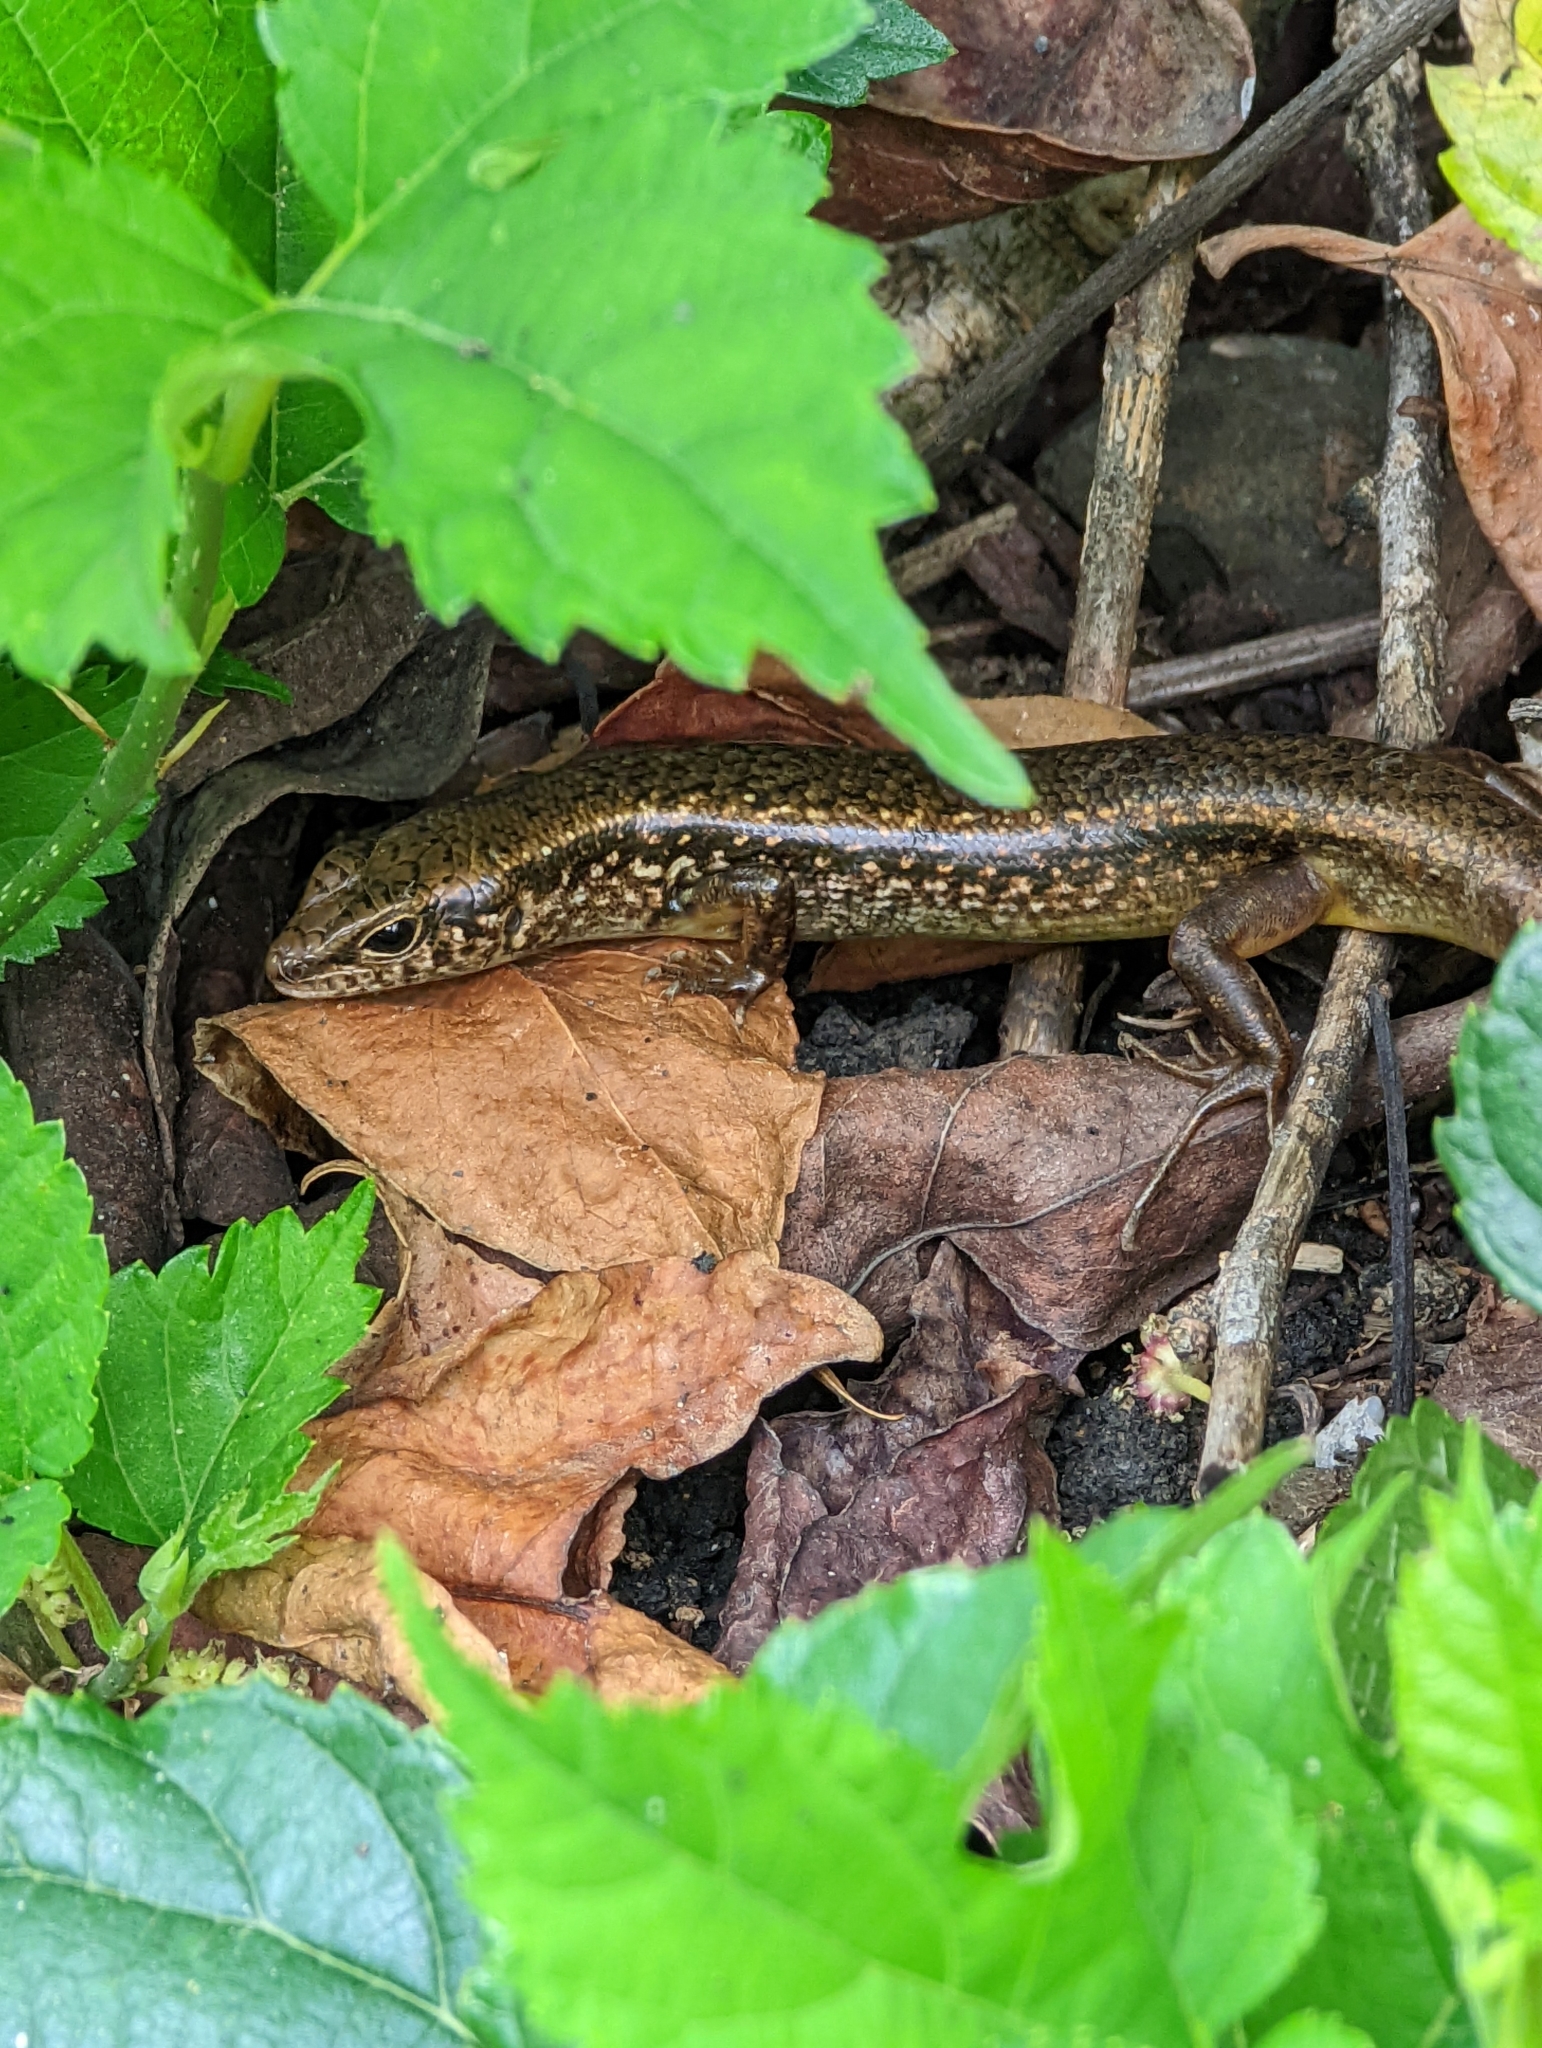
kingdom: Animalia
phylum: Chordata
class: Squamata
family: Scincidae
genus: Sphenomorphus
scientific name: Sphenomorphus indicus
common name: Himalayan forest skink
